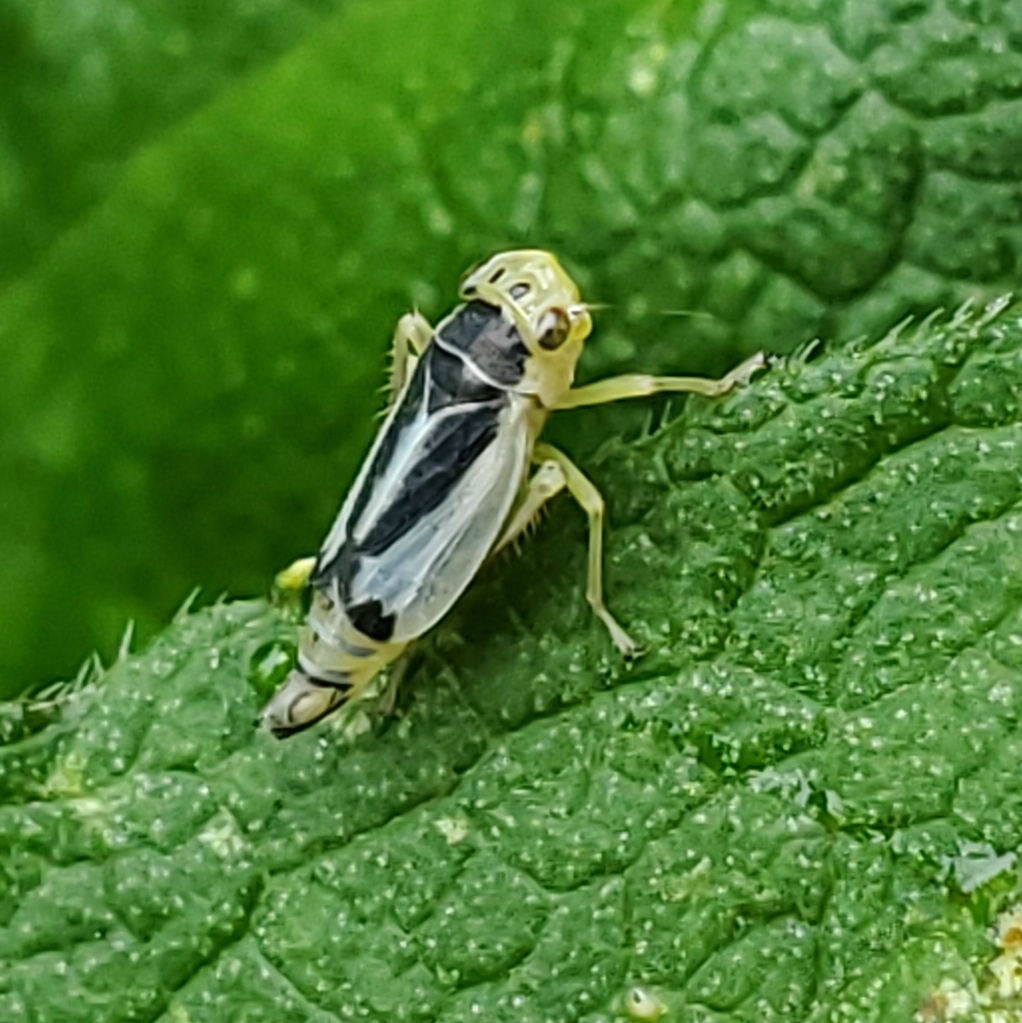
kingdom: Animalia
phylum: Arthropoda
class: Insecta
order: Hemiptera
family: Cicadellidae
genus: Evacanthus
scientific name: Evacanthus bellaustralis
